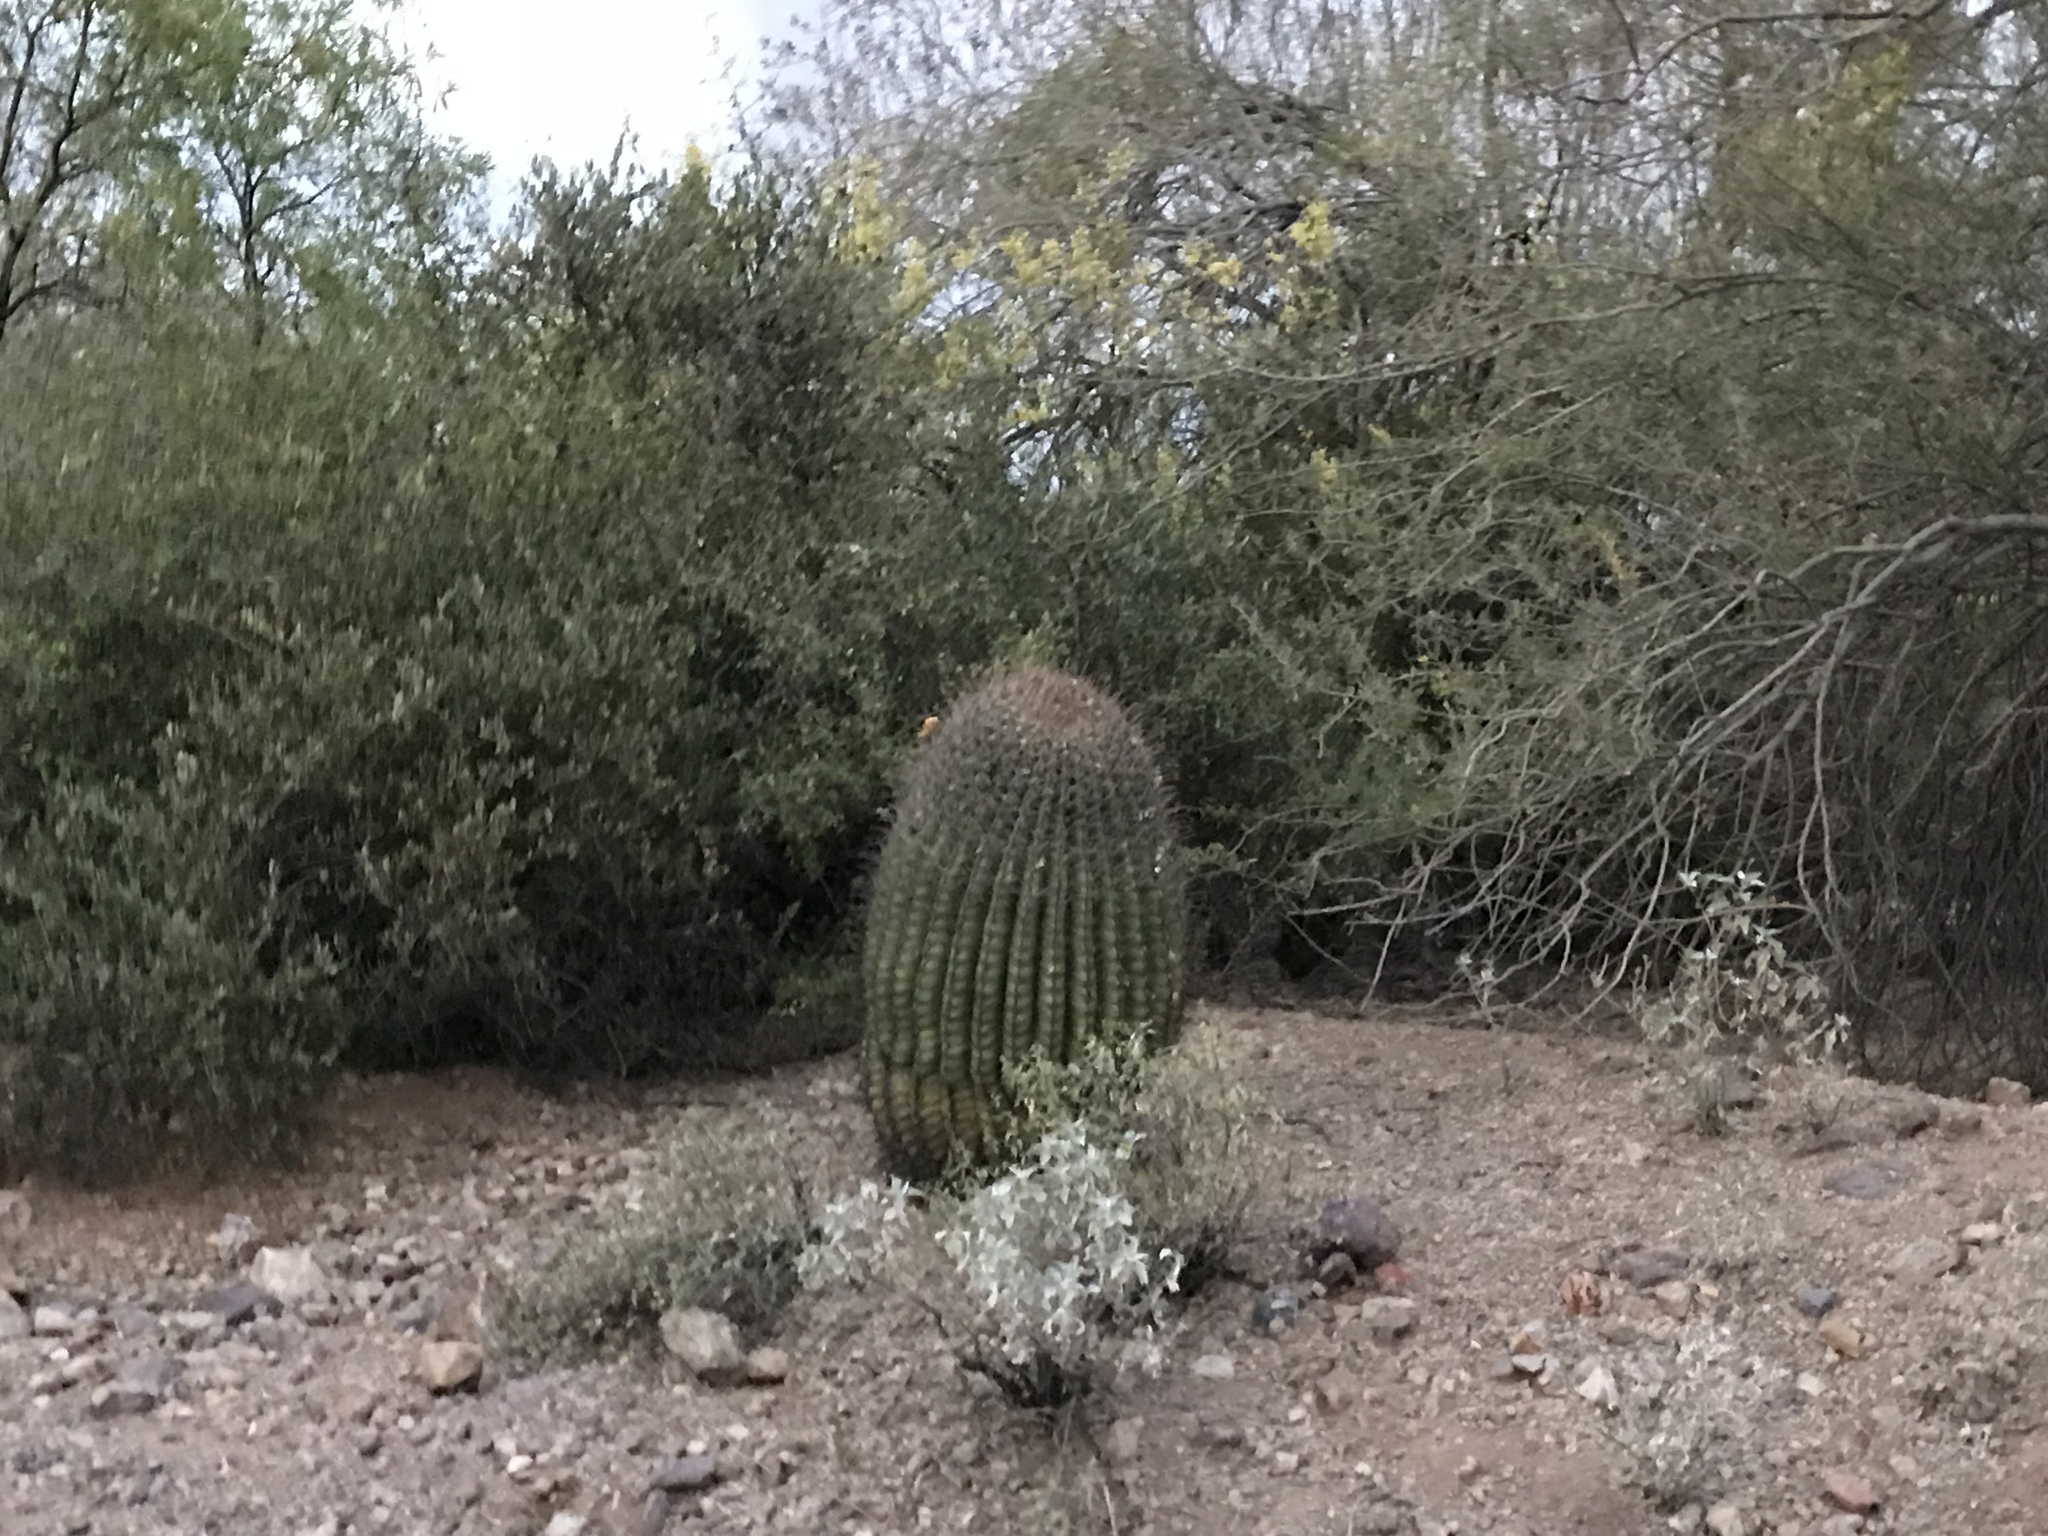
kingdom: Plantae
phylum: Tracheophyta
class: Magnoliopsida
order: Caryophyllales
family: Cactaceae
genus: Ferocactus
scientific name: Ferocactus wislizeni
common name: Candy barrel cactus
